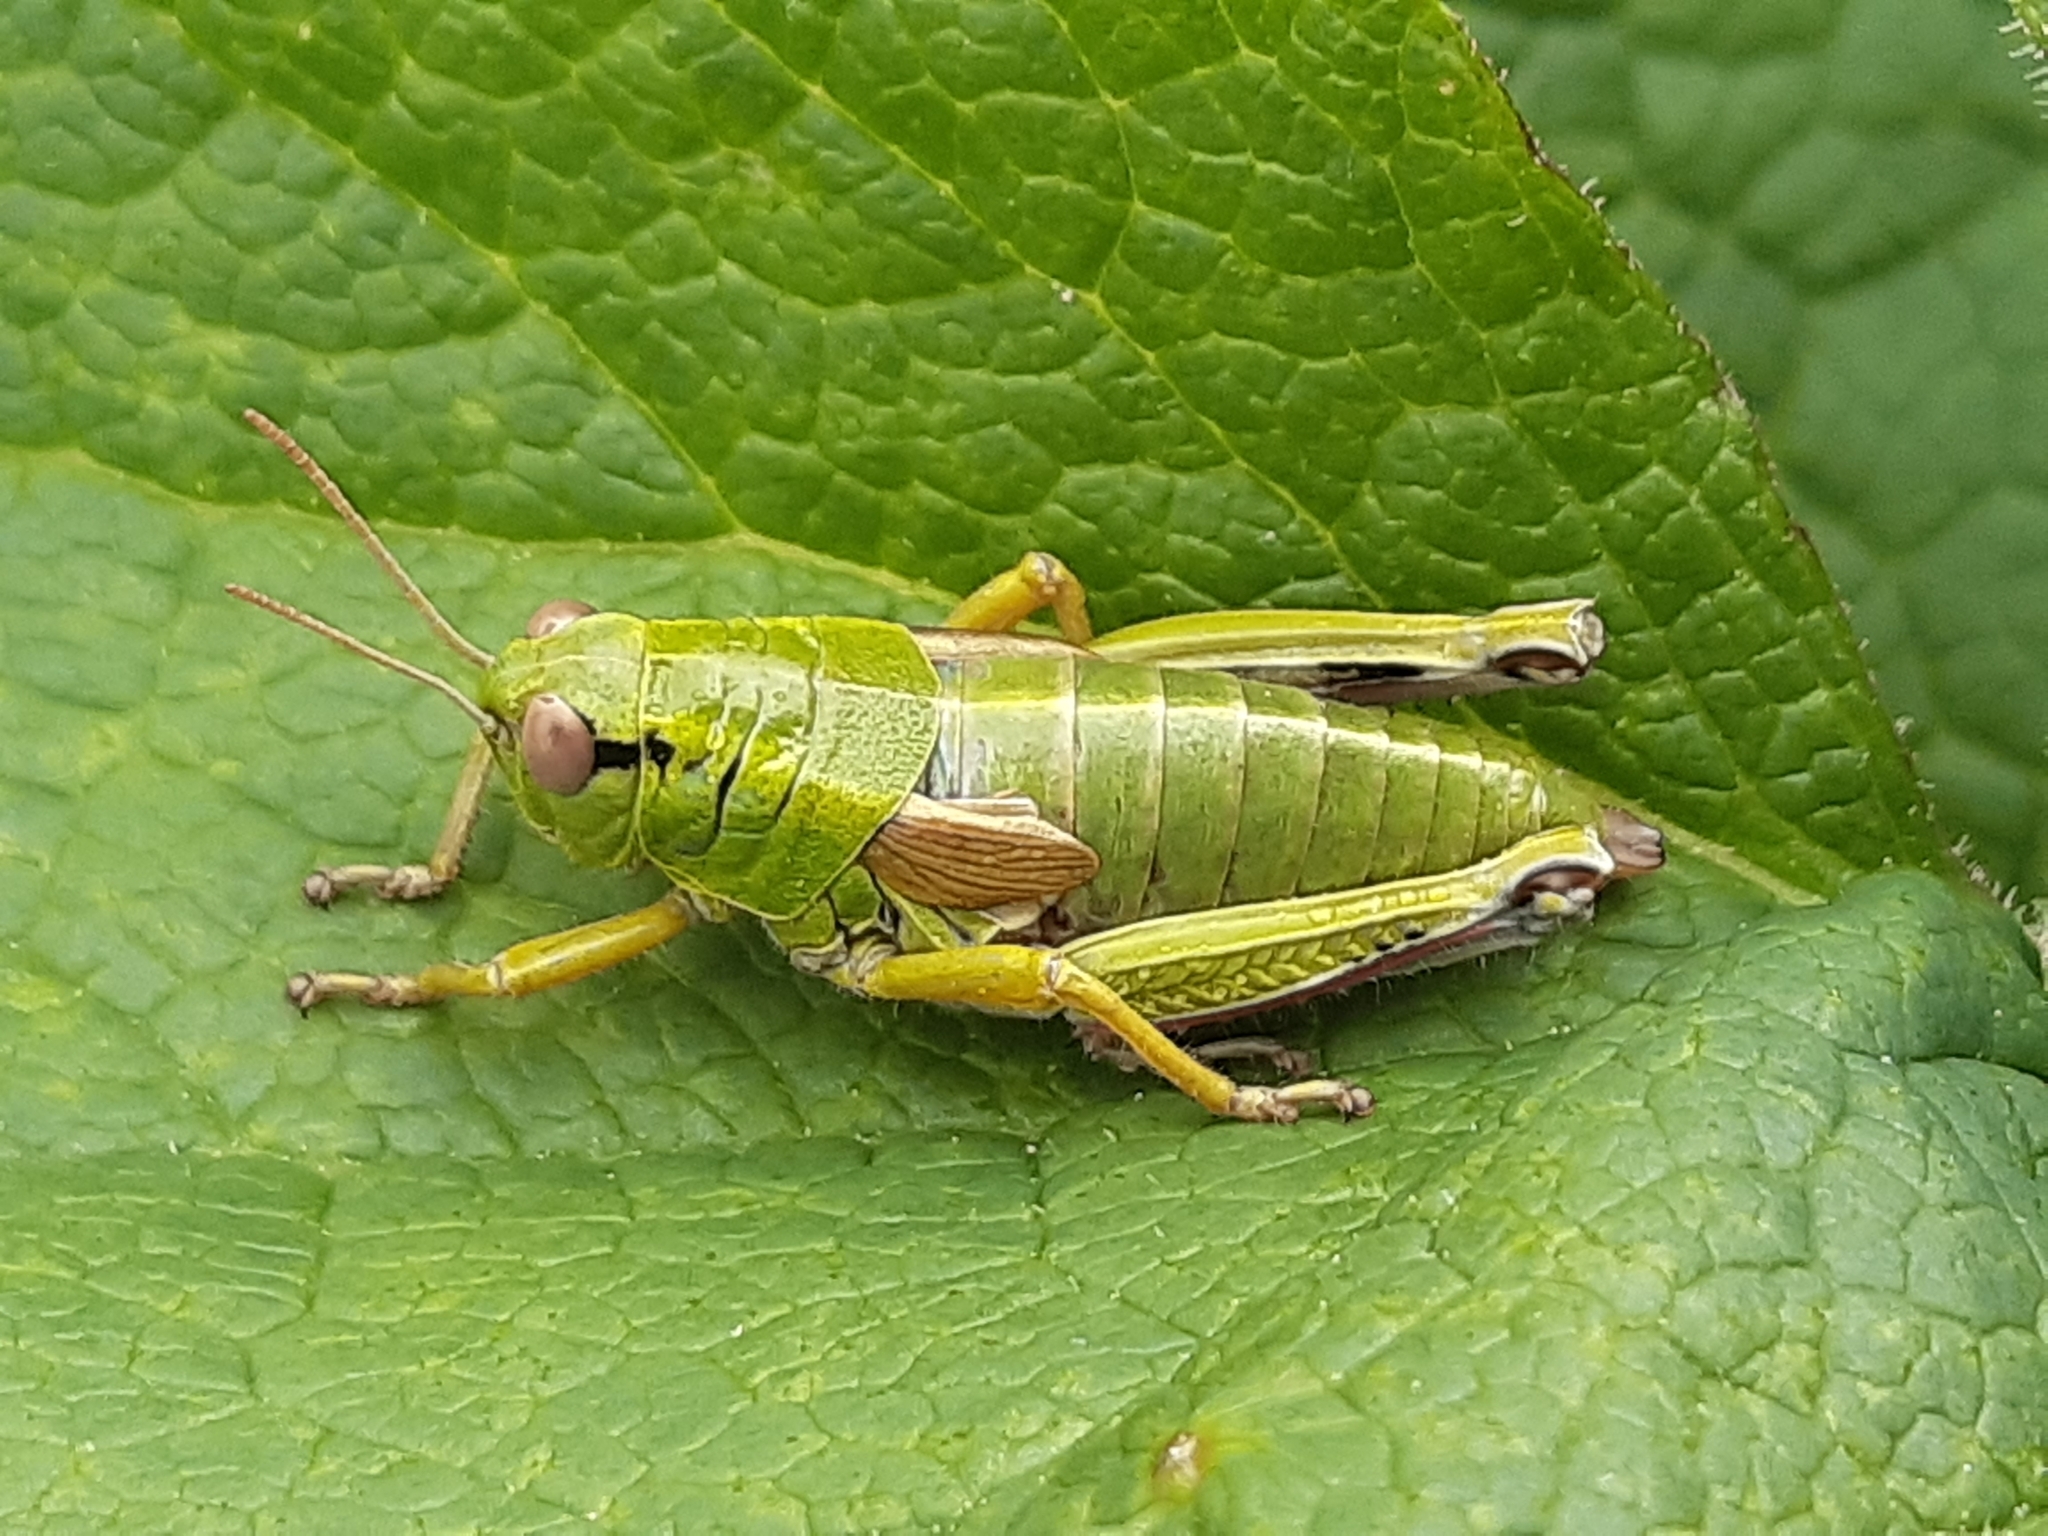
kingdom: Animalia
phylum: Arthropoda
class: Insecta
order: Orthoptera
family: Acrididae
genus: Miramella
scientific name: Miramella alpina
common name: Green mountain grasshopper
